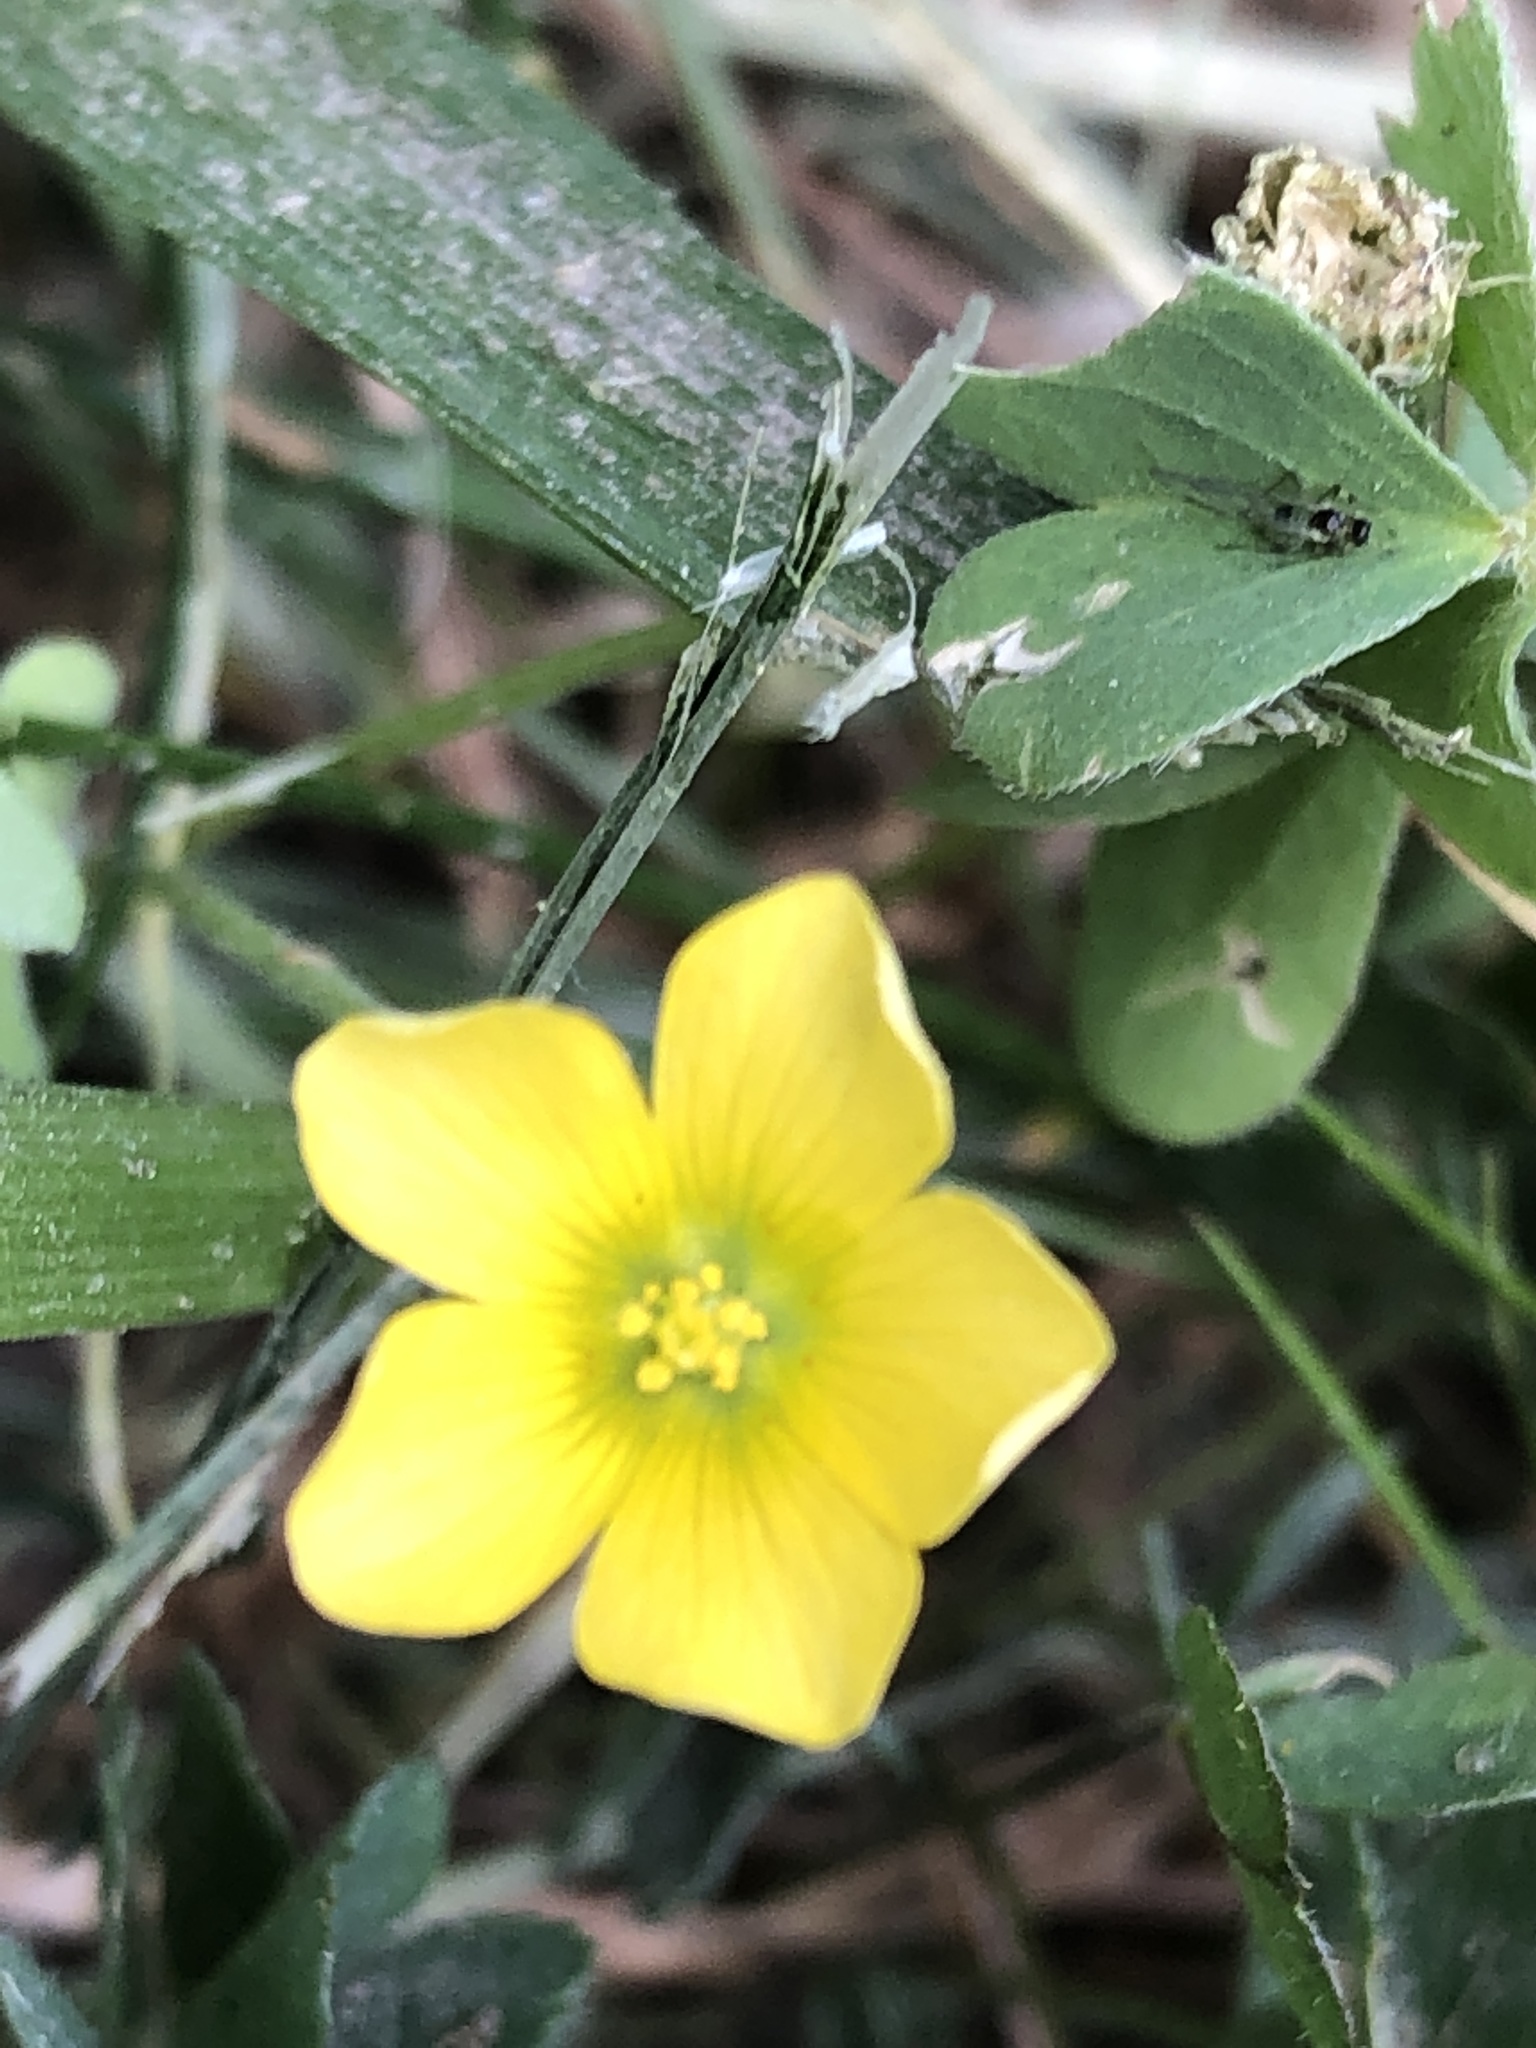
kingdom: Plantae
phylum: Tracheophyta
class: Magnoliopsida
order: Oxalidales
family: Oxalidaceae
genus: Oxalis
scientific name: Oxalis corniculata
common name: Procumbent yellow-sorrel
